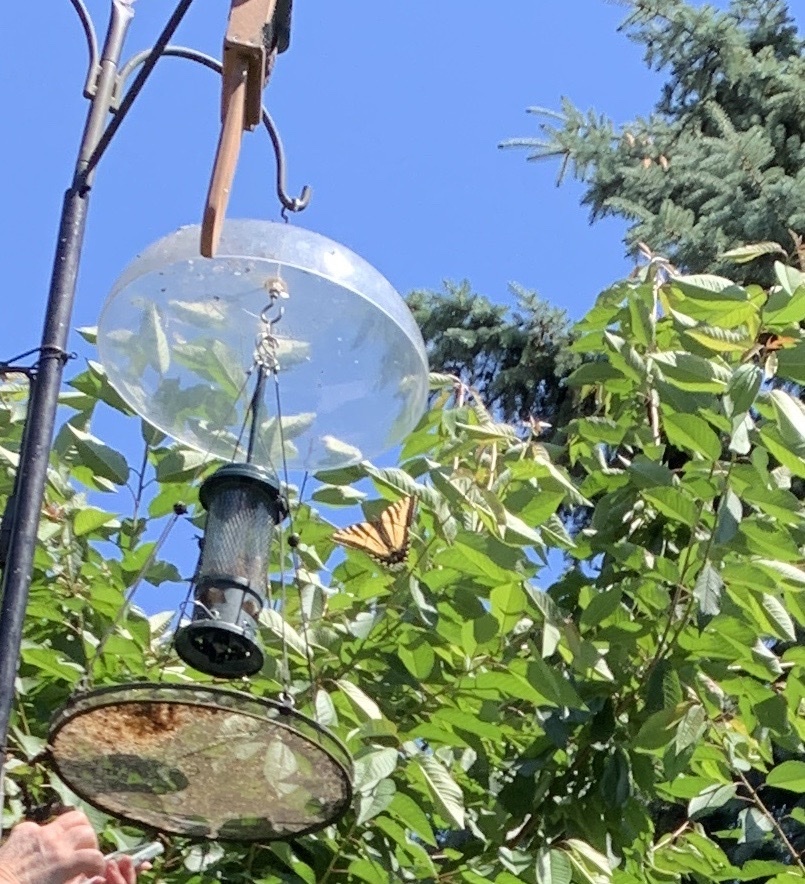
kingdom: Animalia
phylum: Arthropoda
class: Insecta
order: Lepidoptera
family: Papilionidae
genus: Papilio
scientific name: Papilio rutulus
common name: Western tiger swallowtail
